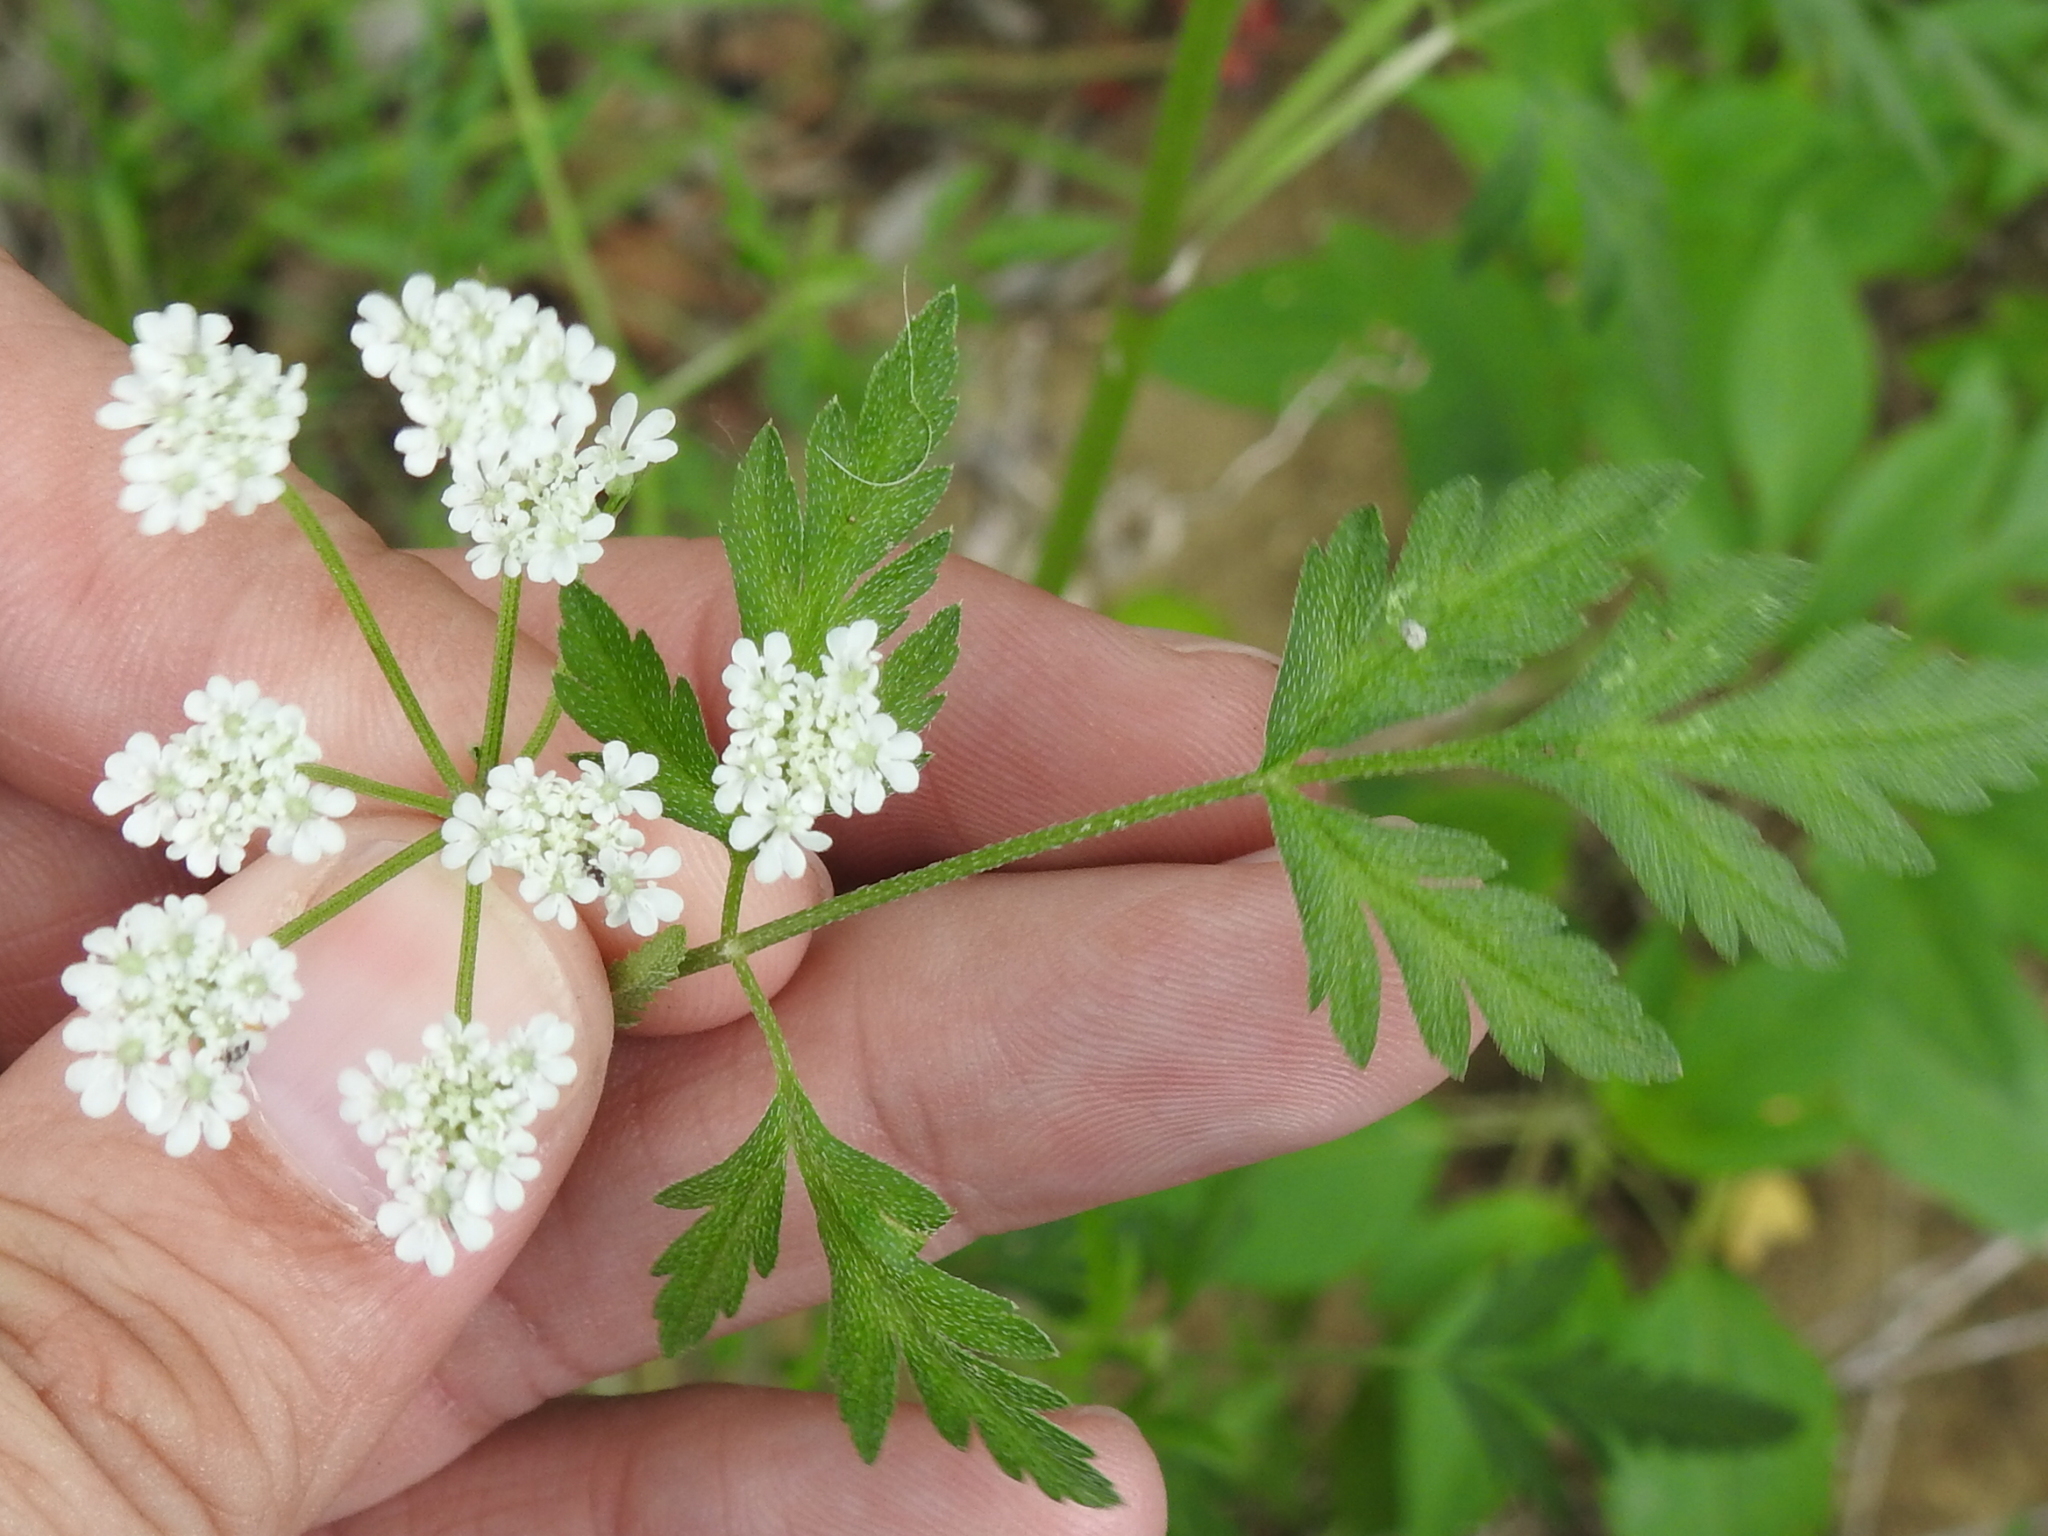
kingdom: Plantae
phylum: Tracheophyta
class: Magnoliopsida
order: Apiales
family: Apiaceae
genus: Torilis
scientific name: Torilis arvensis
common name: Spreading hedge-parsley
